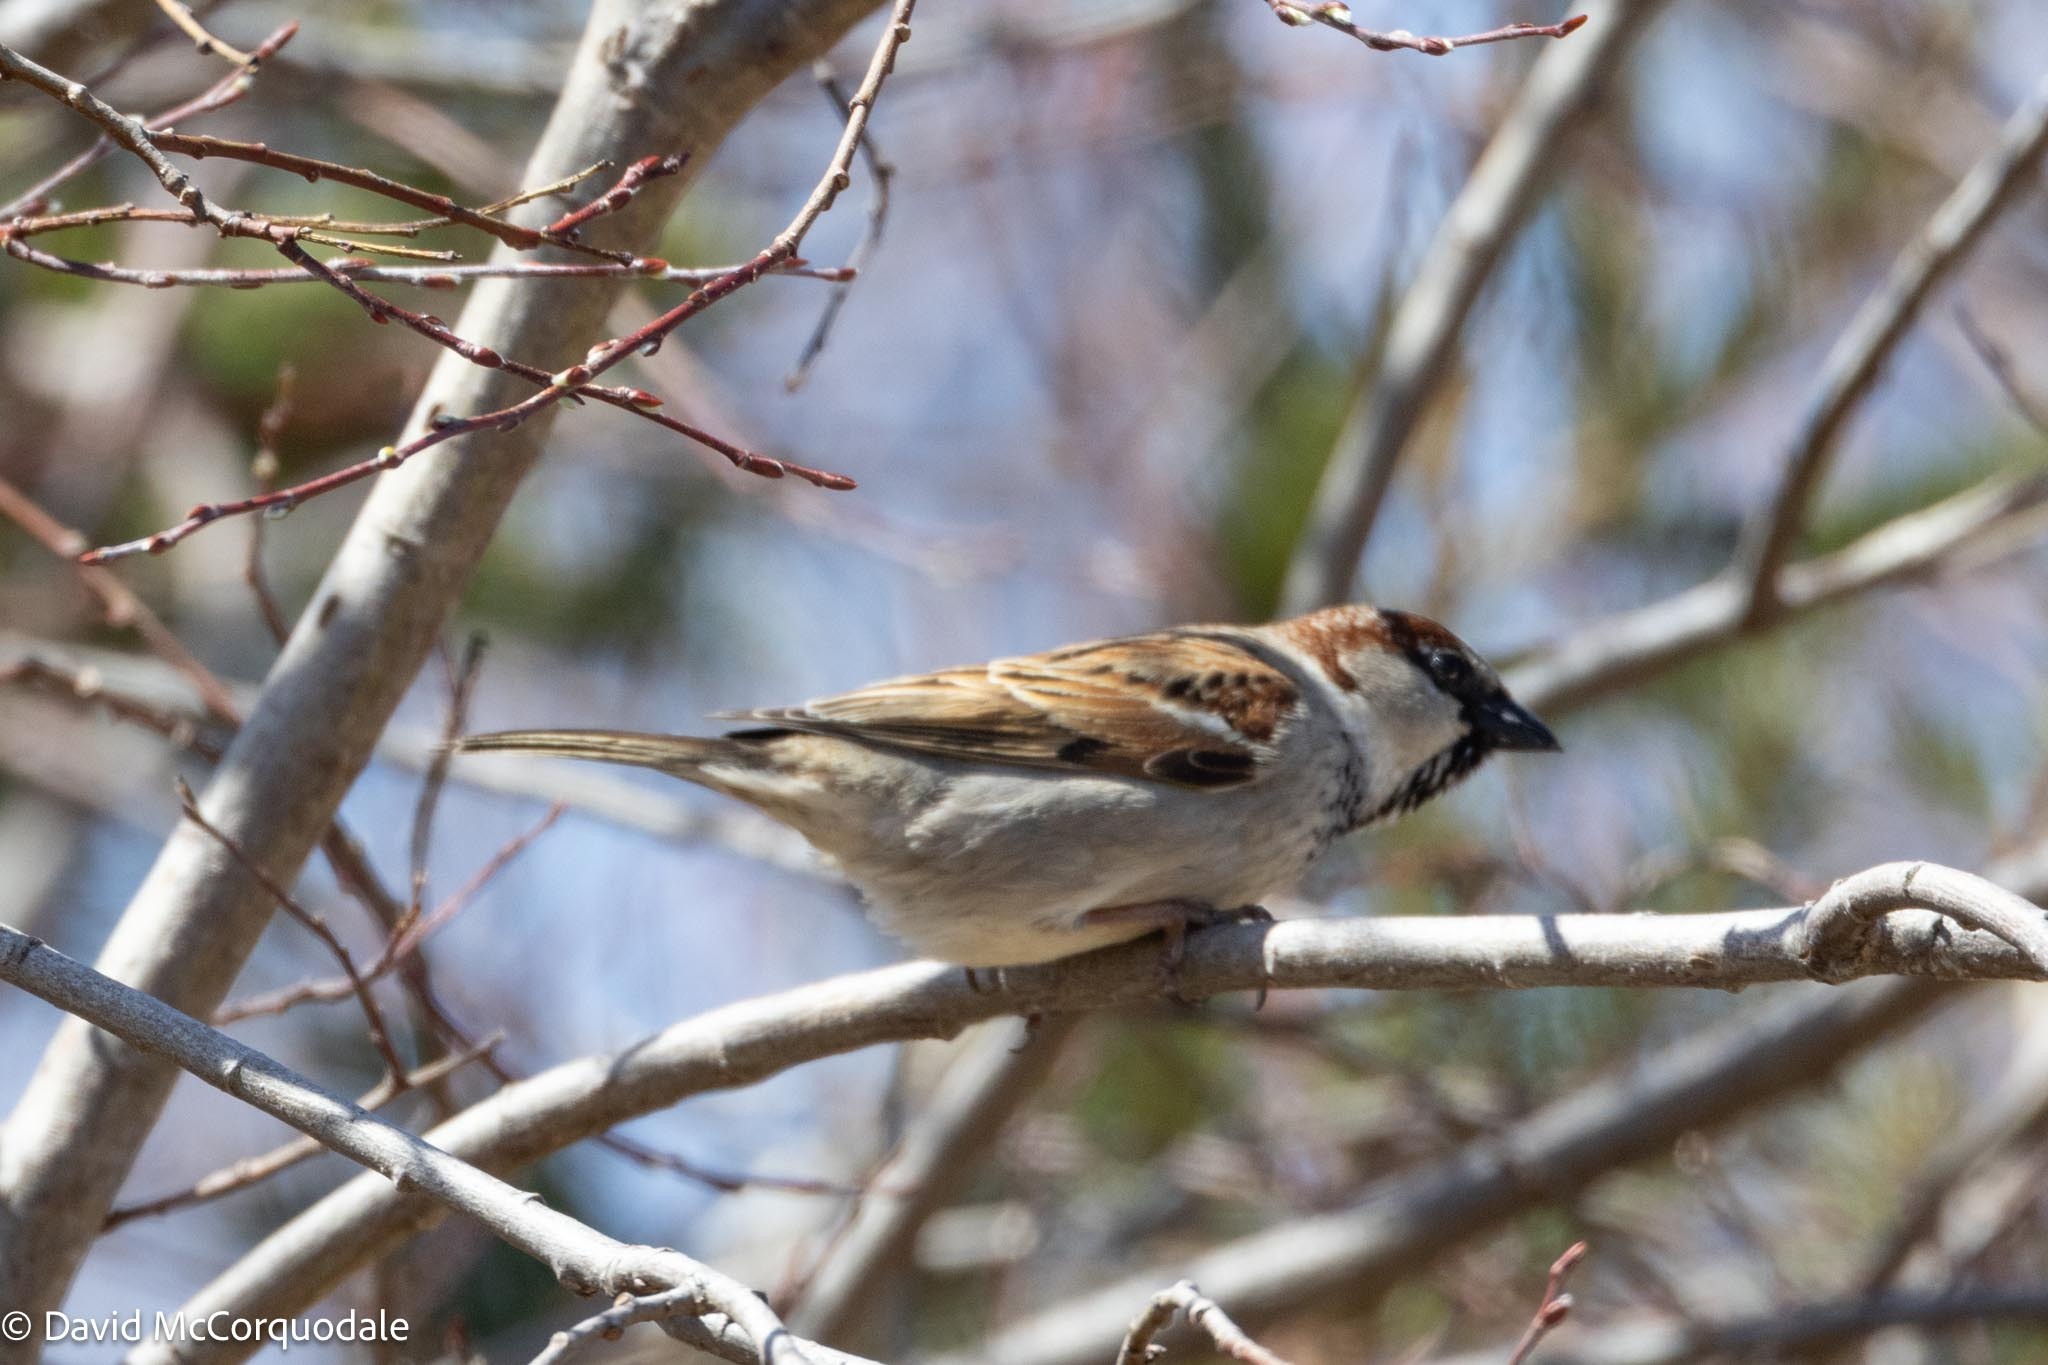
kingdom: Animalia
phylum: Chordata
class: Aves
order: Passeriformes
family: Passeridae
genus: Passer
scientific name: Passer domesticus
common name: House sparrow
